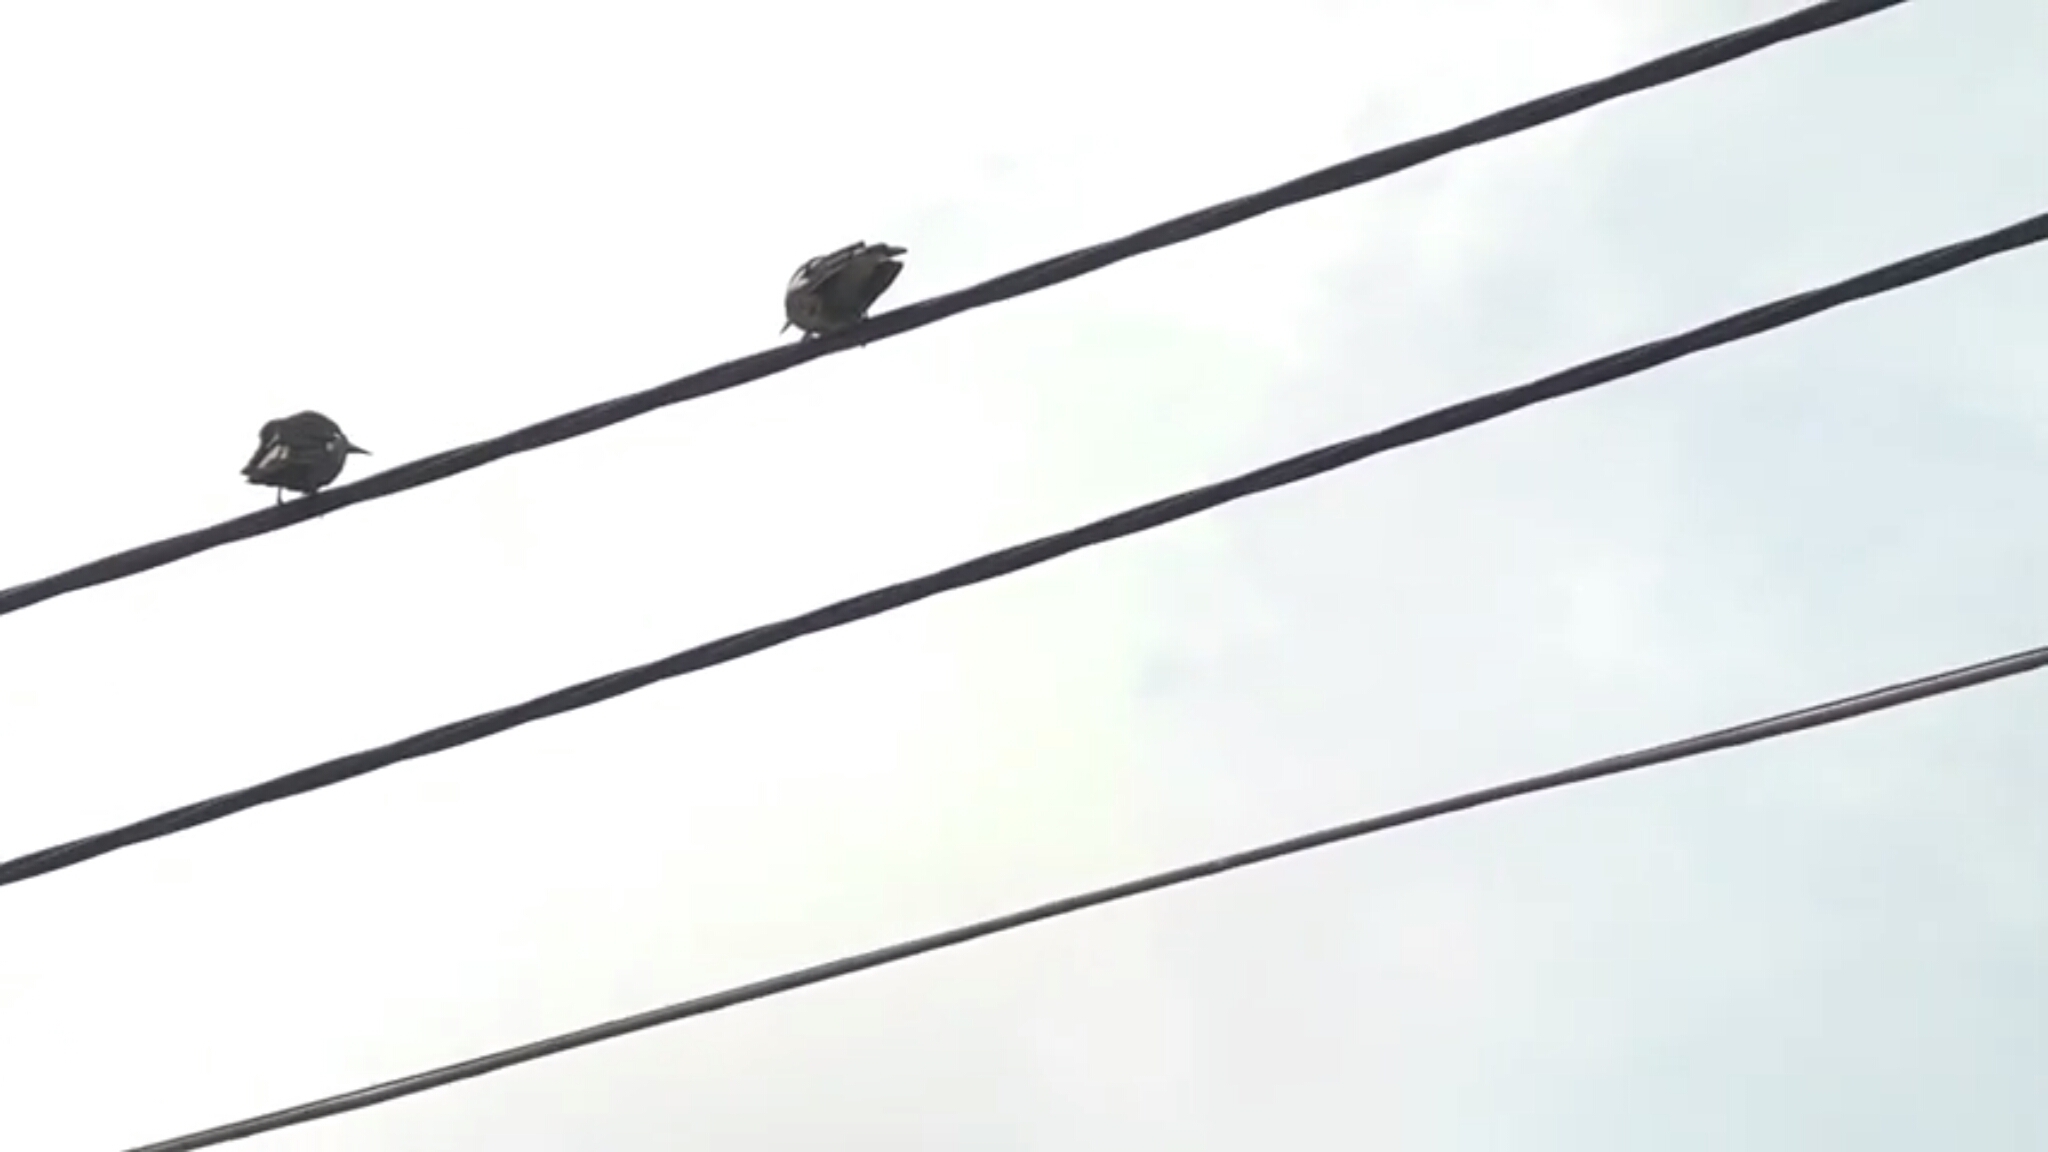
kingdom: Animalia
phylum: Chordata
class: Aves
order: Passeriformes
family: Cracticidae
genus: Gymnorhina
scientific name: Gymnorhina tibicen
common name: Australian magpie
